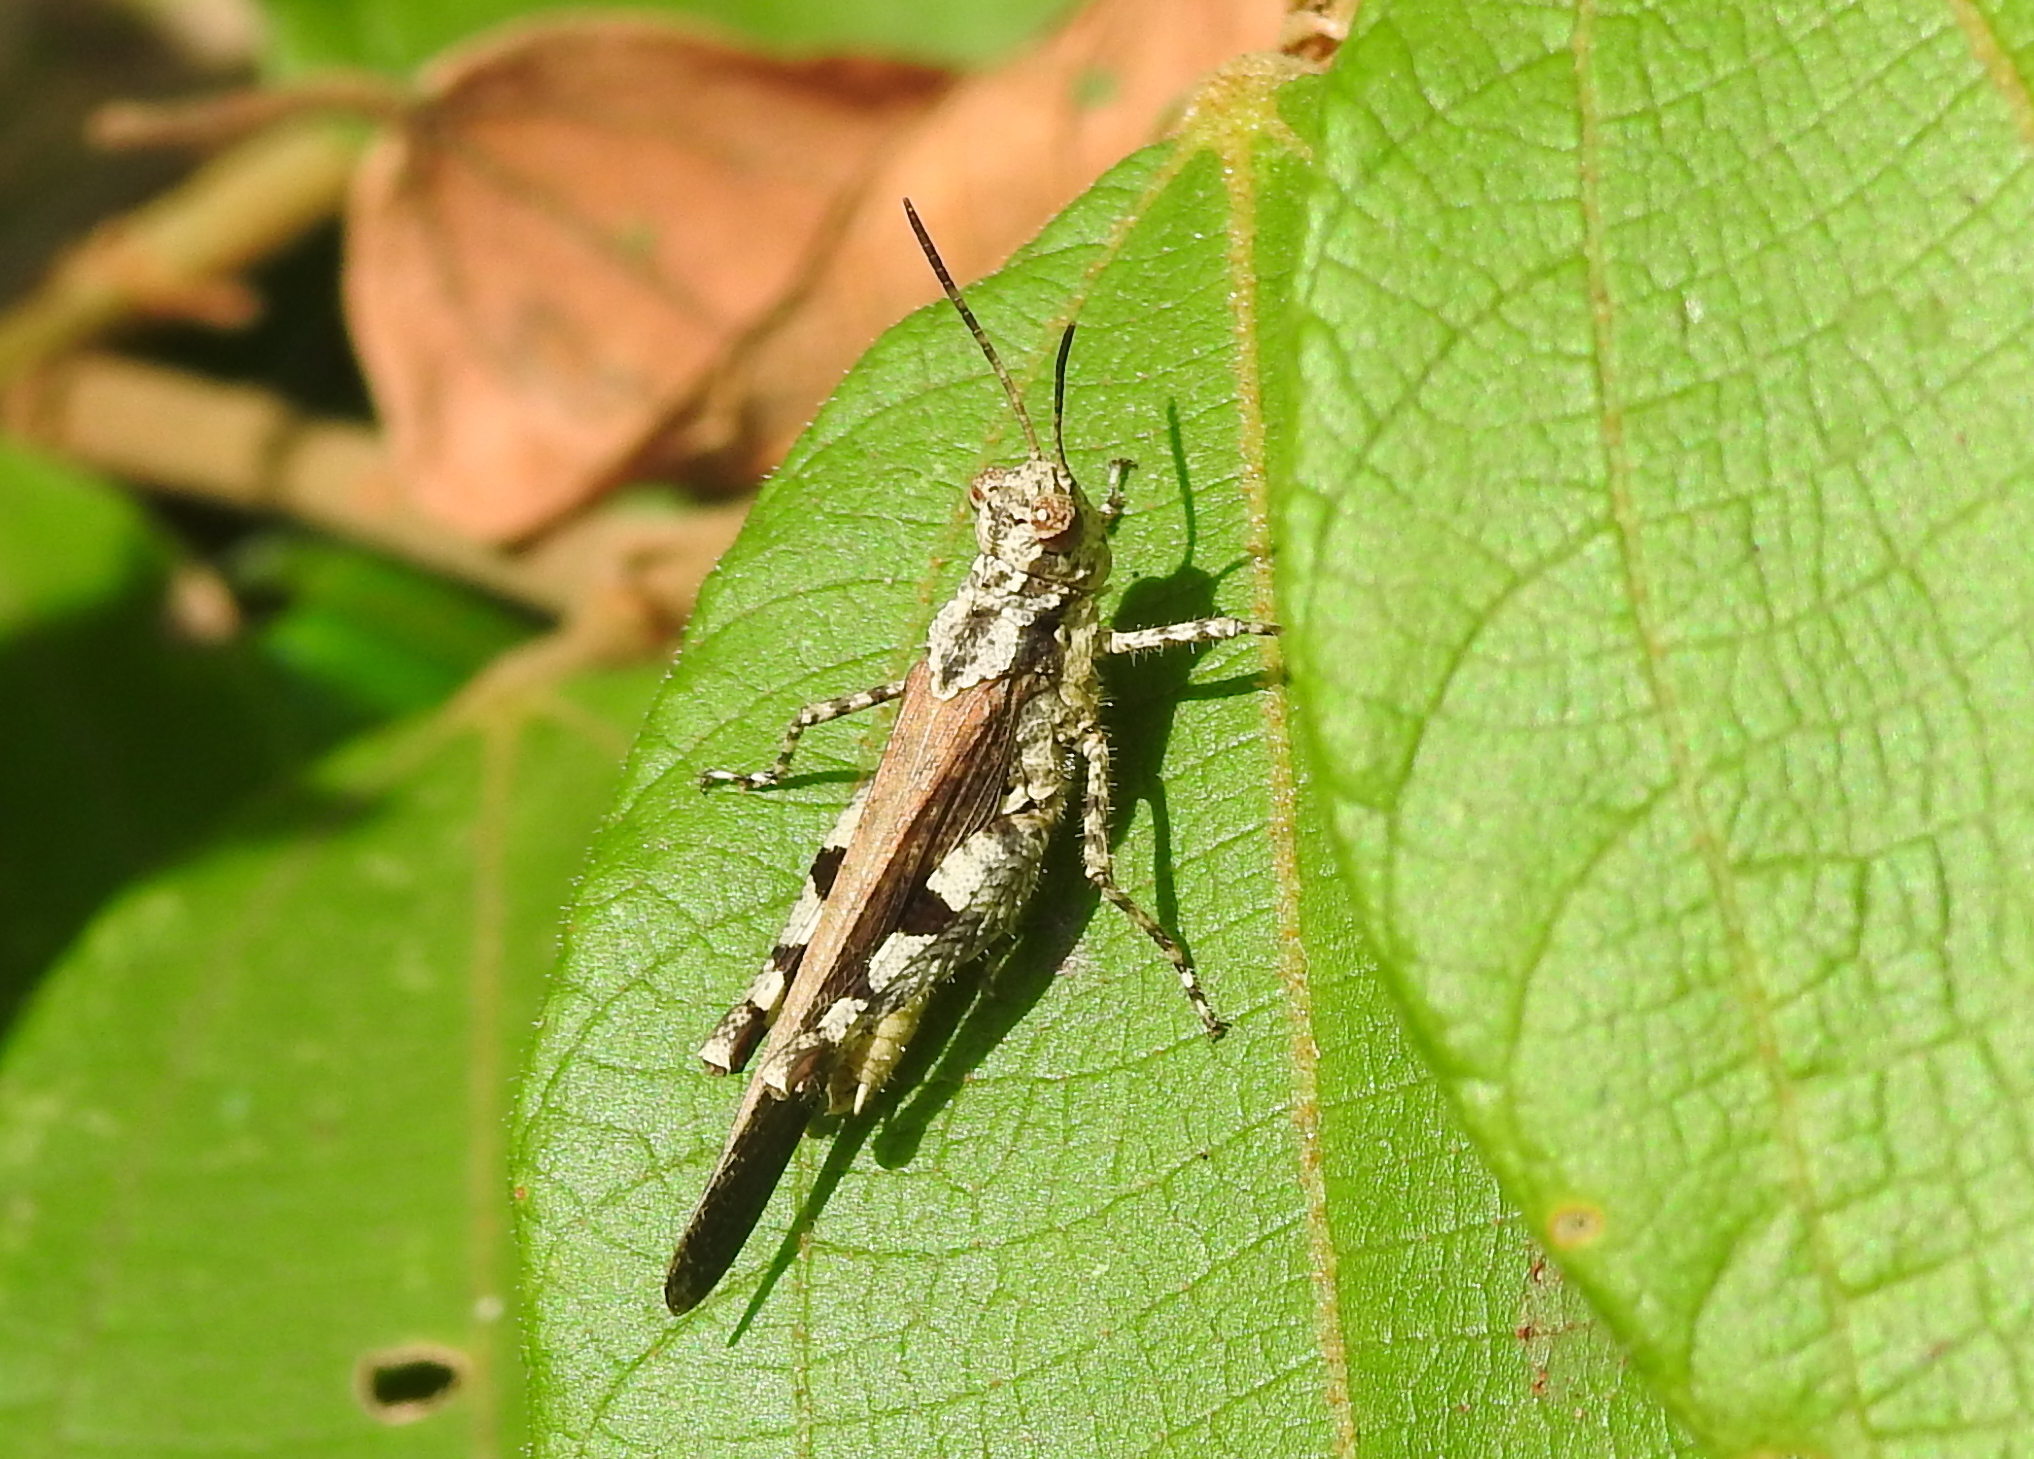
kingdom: Animalia
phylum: Arthropoda
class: Insecta
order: Orthoptera
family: Acrididae
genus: Trilophidia
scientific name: Trilophidia annulata
